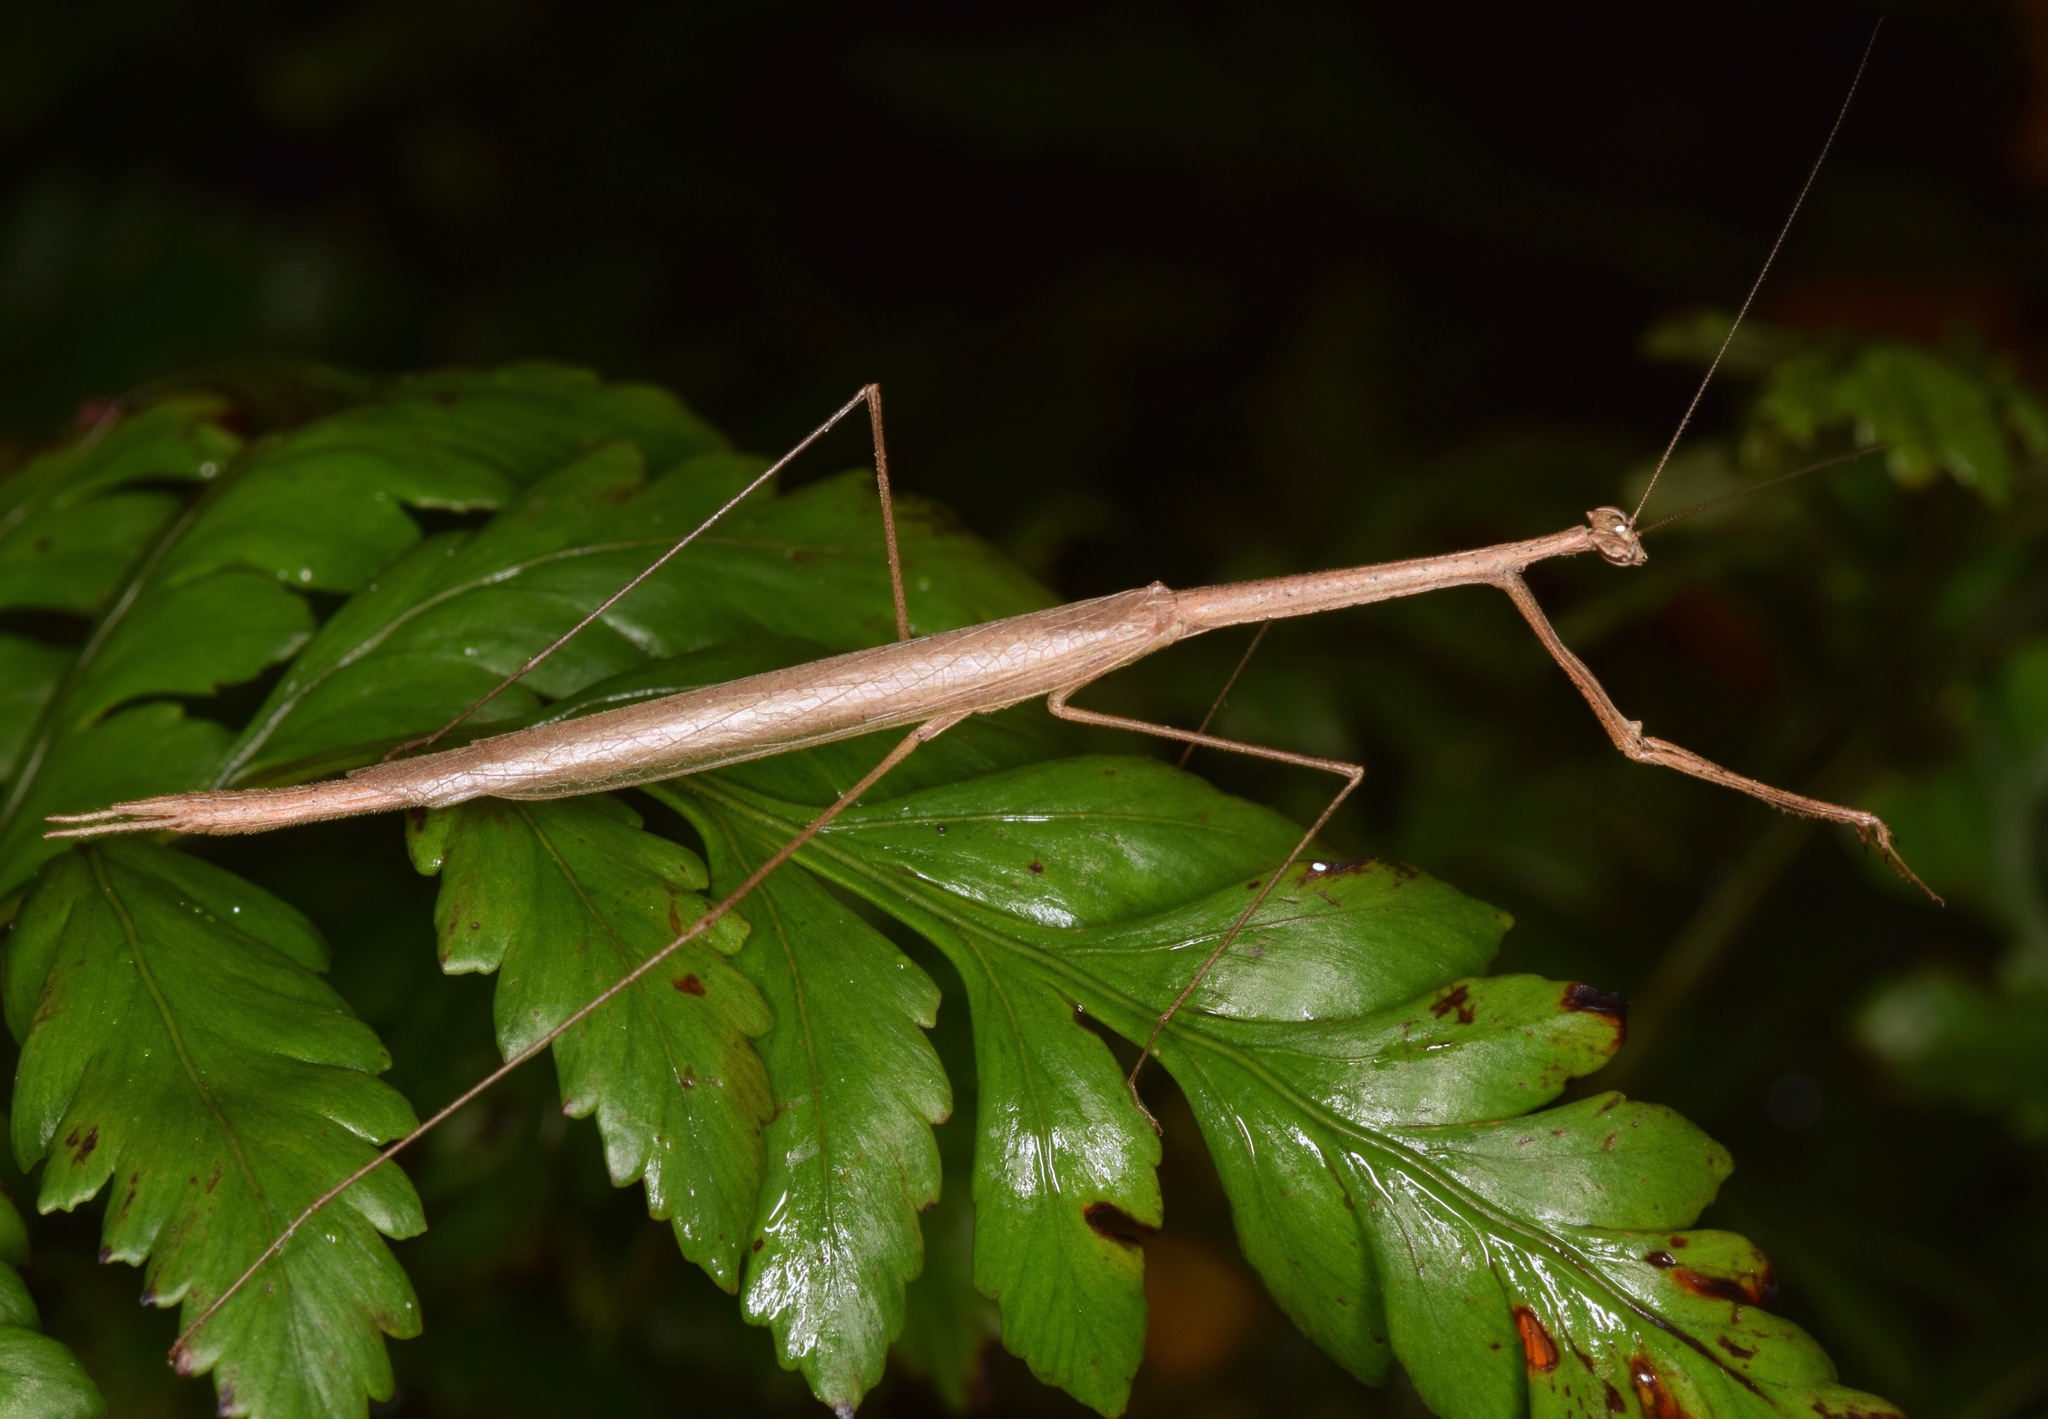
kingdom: Animalia
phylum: Arthropoda
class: Insecta
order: Mantodea
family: Thespidae
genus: Thesprotia
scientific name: Thesprotia graminis
